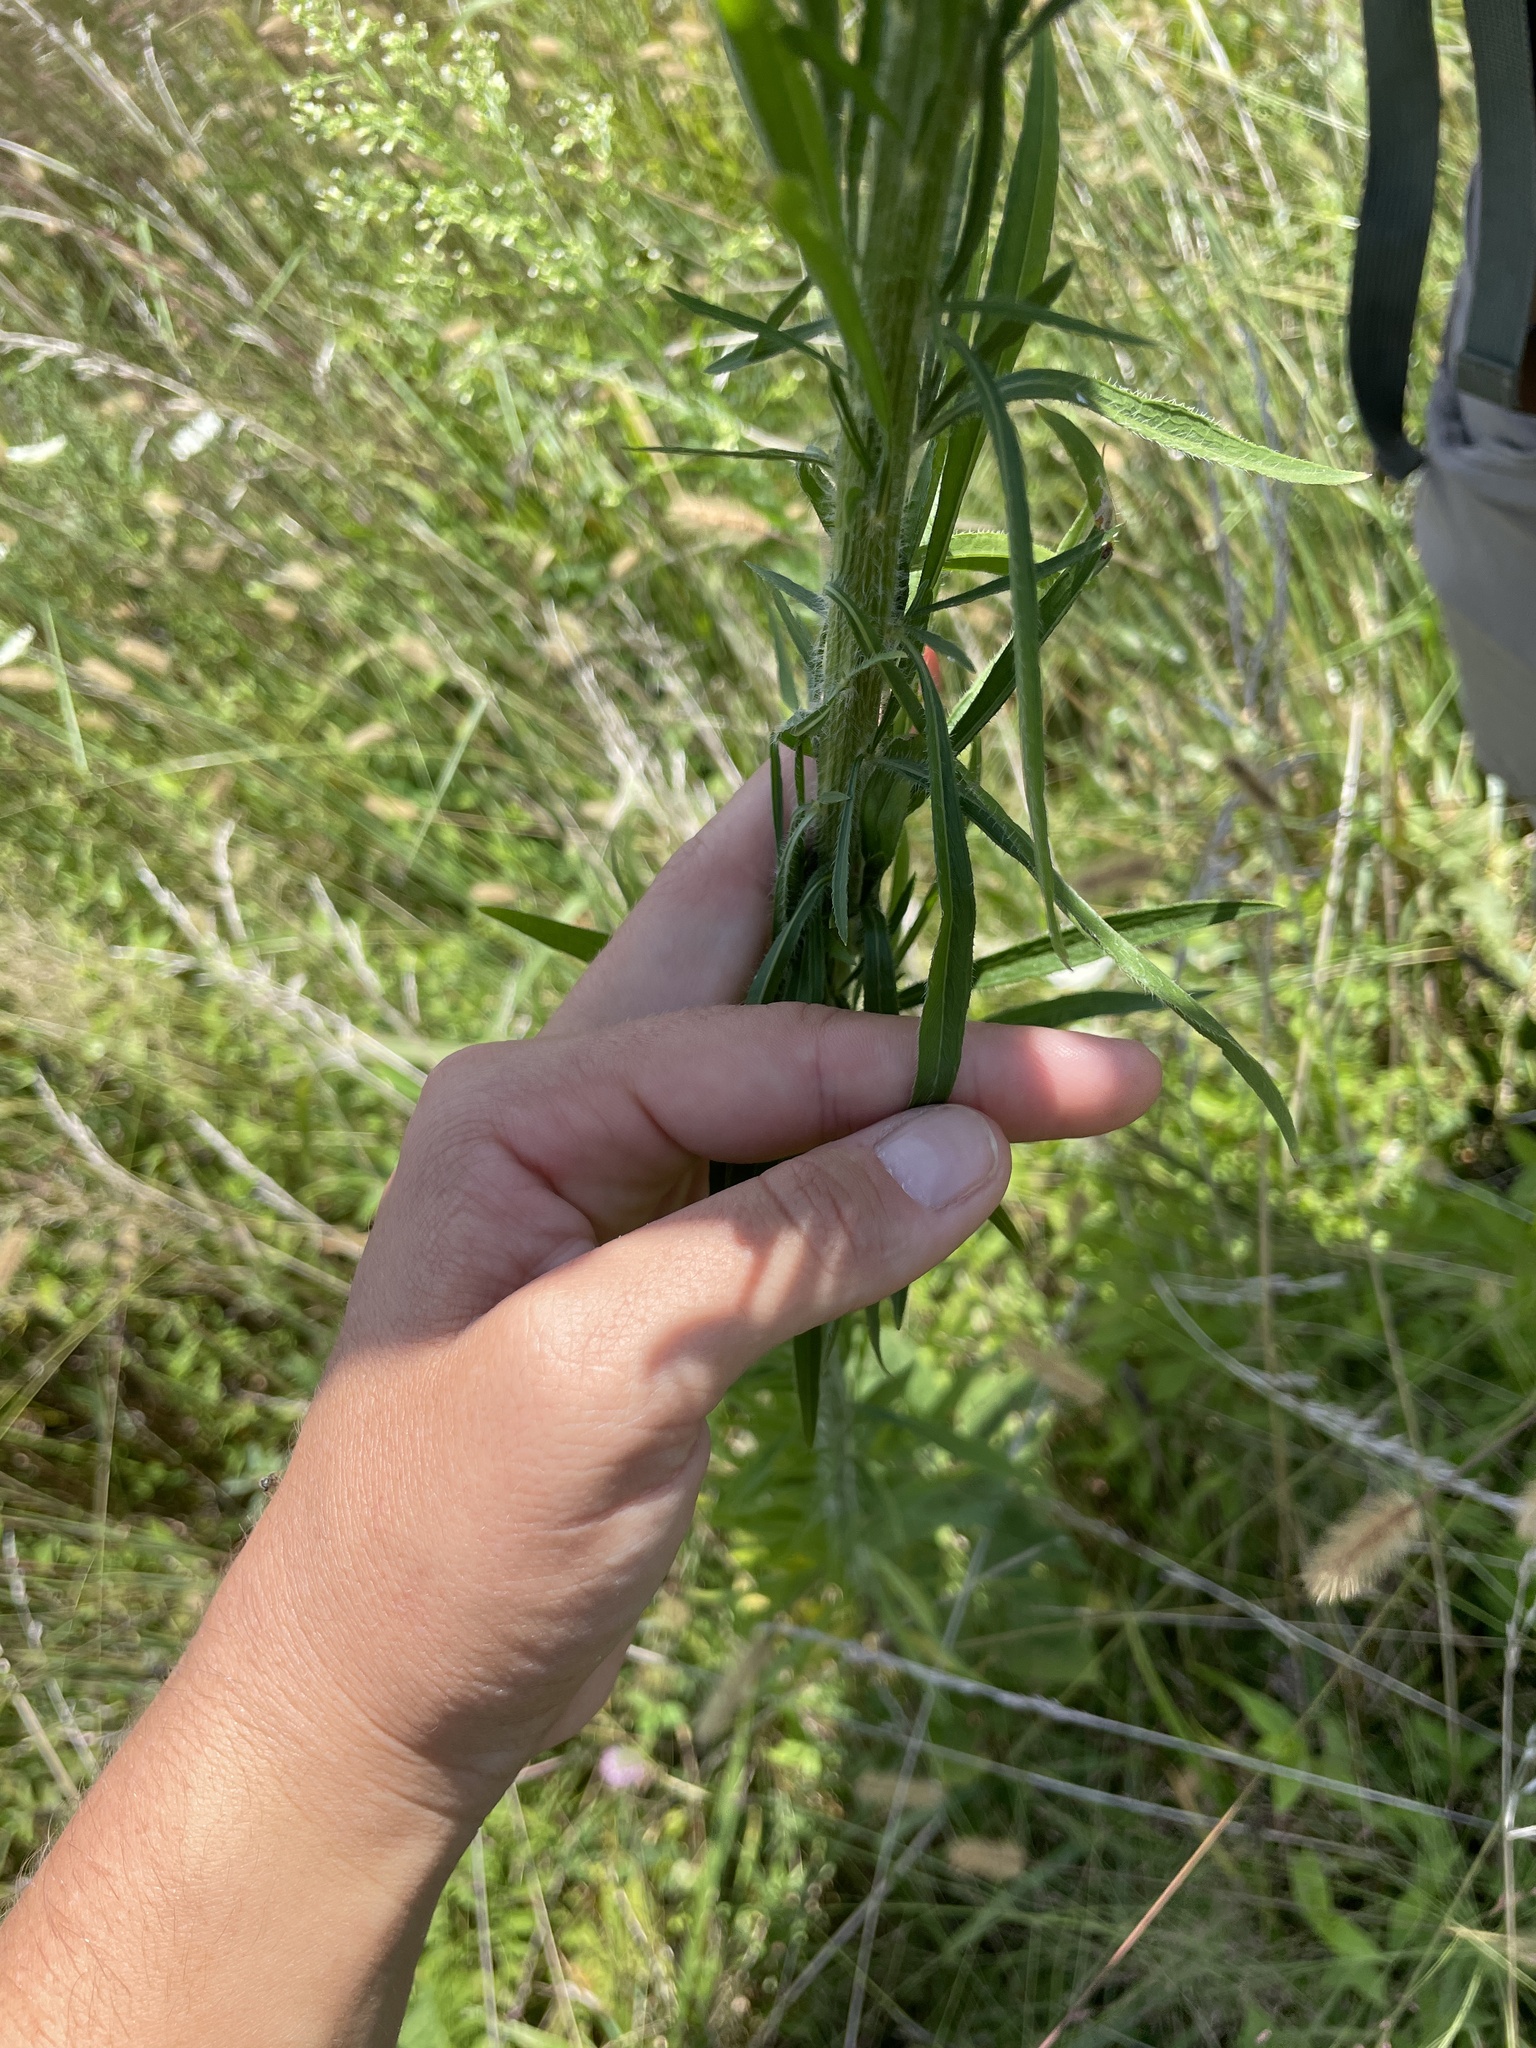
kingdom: Plantae
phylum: Tracheophyta
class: Magnoliopsida
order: Asterales
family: Asteraceae
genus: Erigeron
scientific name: Erigeron canadensis
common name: Canadian fleabane
